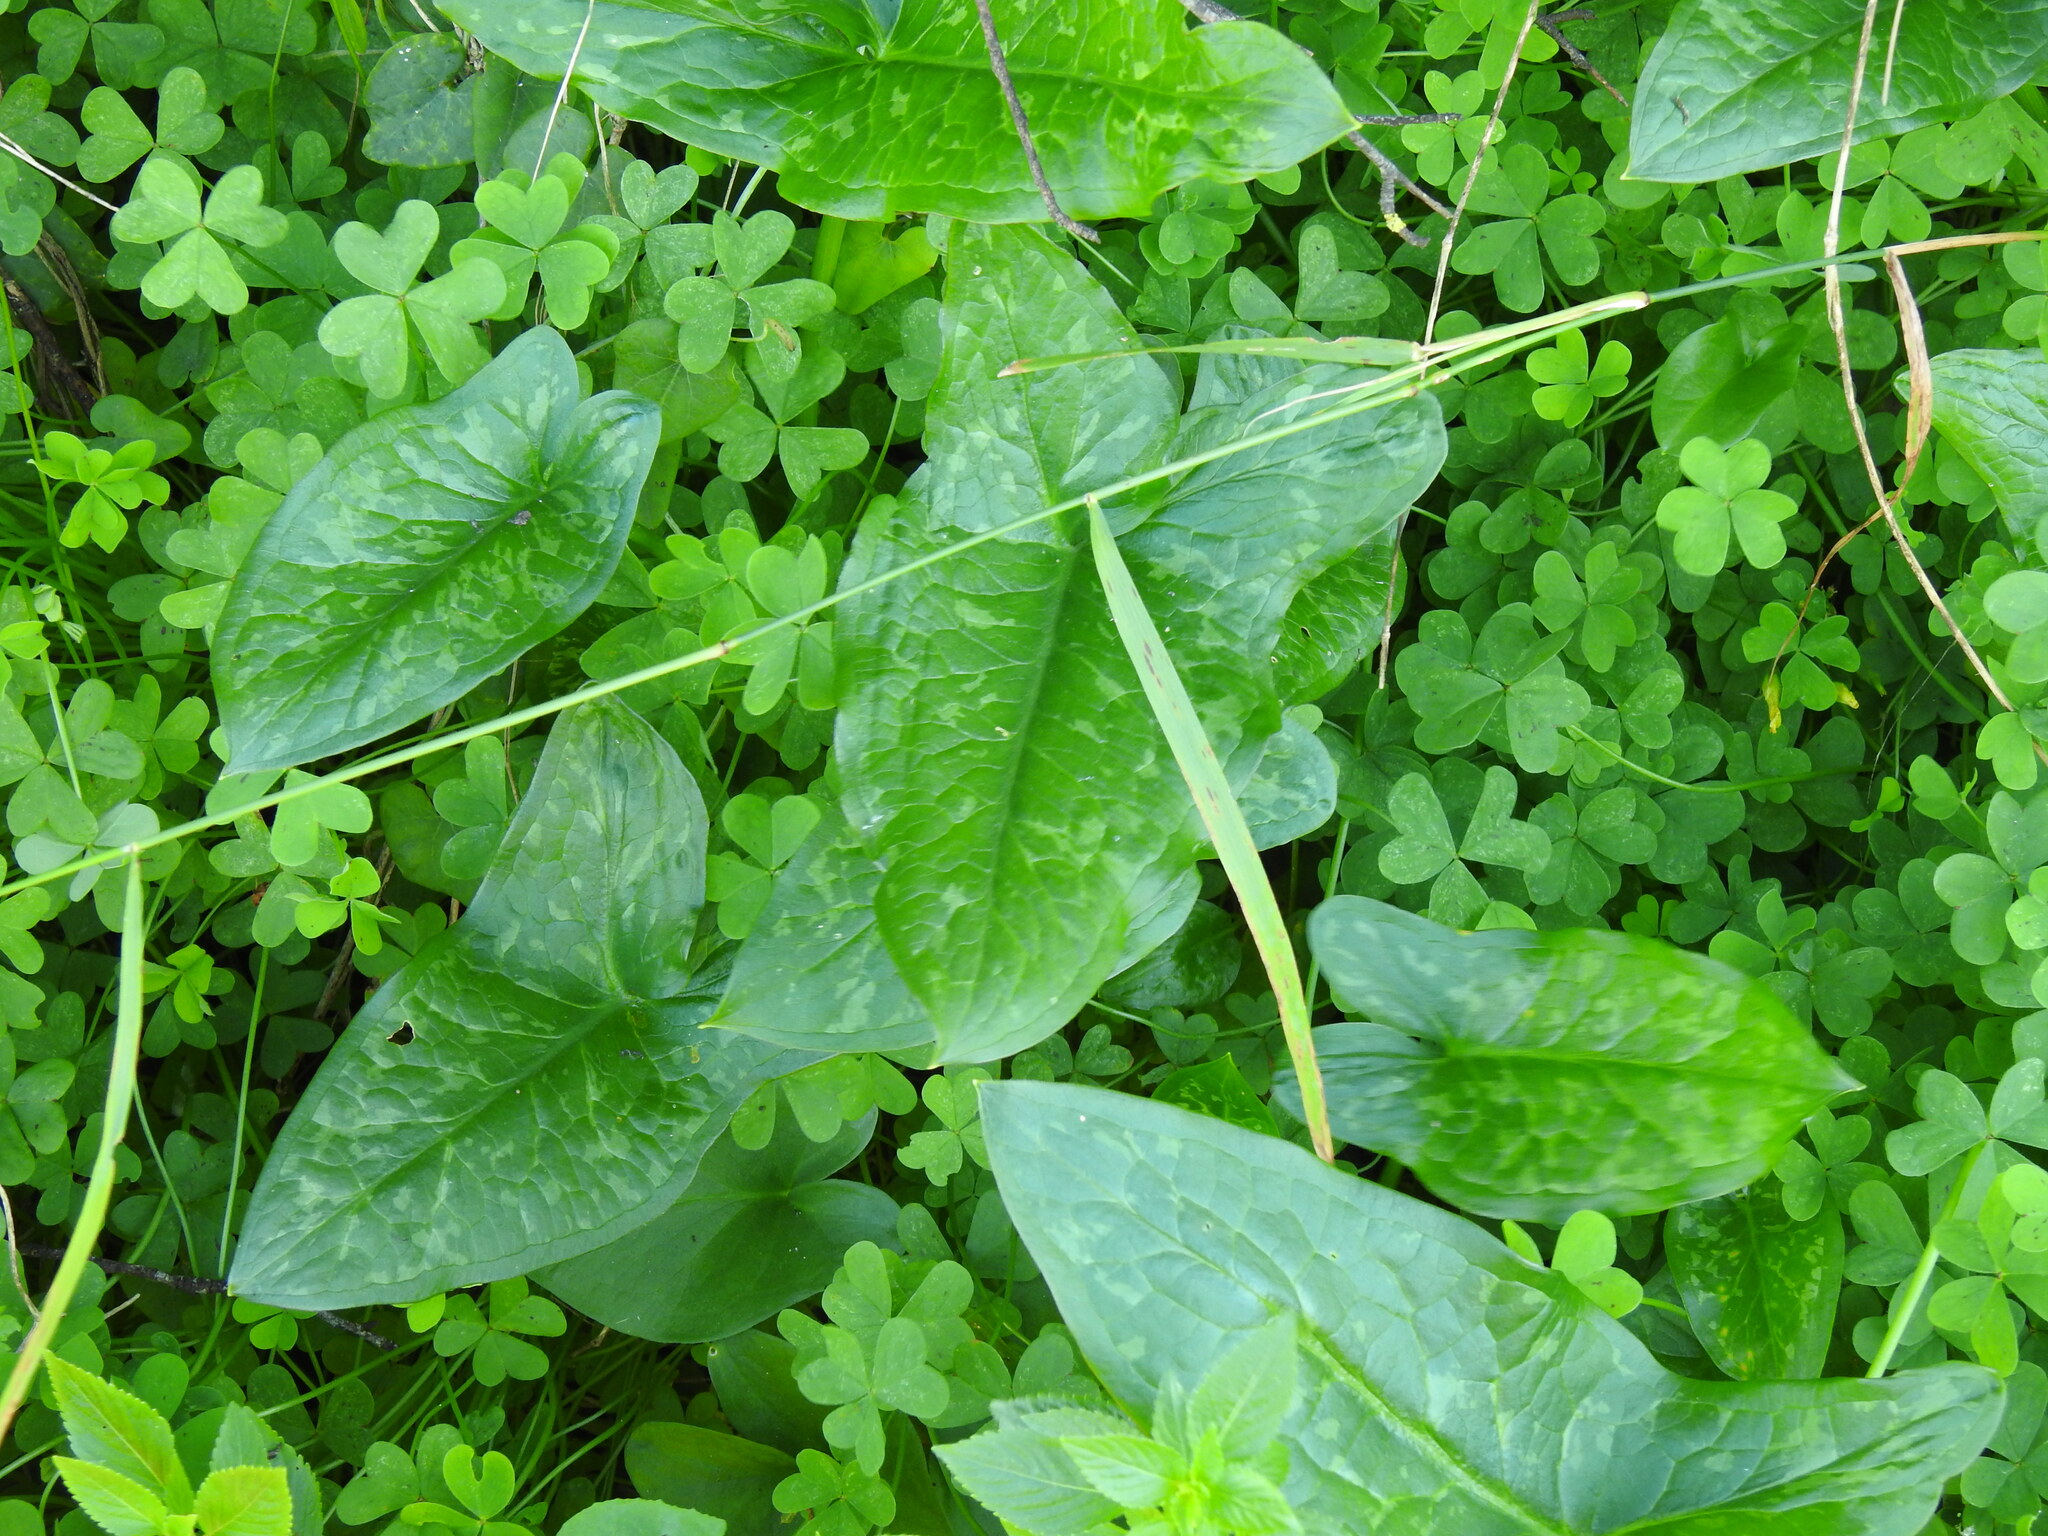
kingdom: Plantae
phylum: Tracheophyta
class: Liliopsida
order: Alismatales
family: Araceae
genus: Arum
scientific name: Arum italicum
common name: Italian lords-and-ladies
